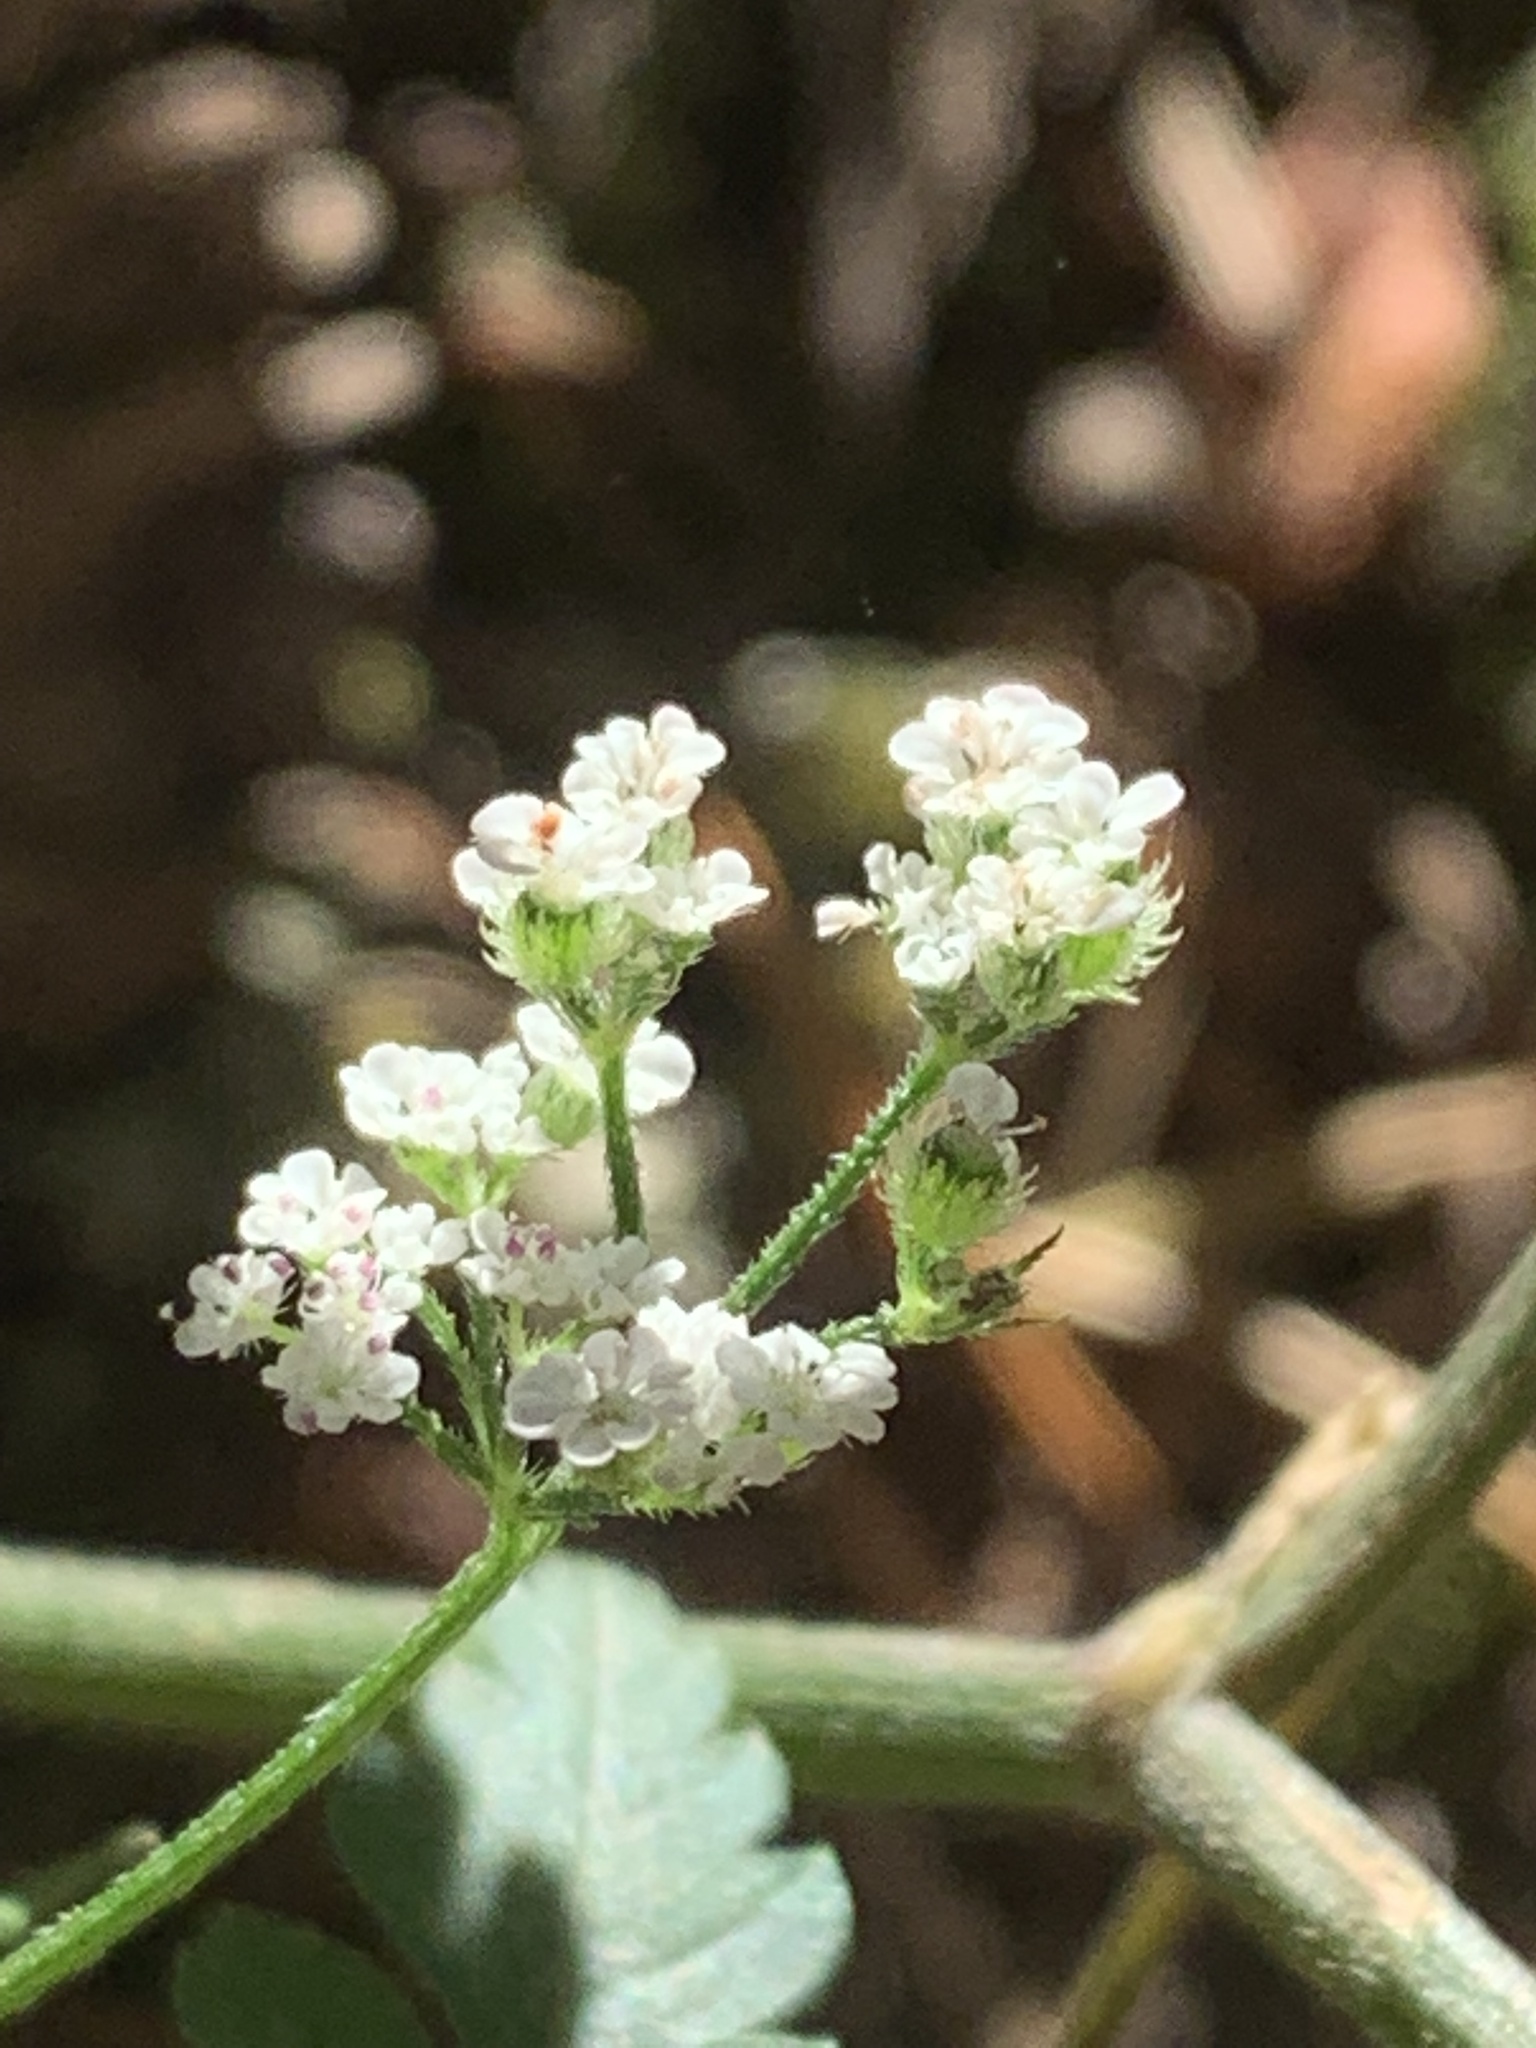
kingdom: Plantae
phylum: Tracheophyta
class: Magnoliopsida
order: Apiales
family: Apiaceae
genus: Torilis
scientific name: Torilis japonica
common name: Upright hedge-parsley
